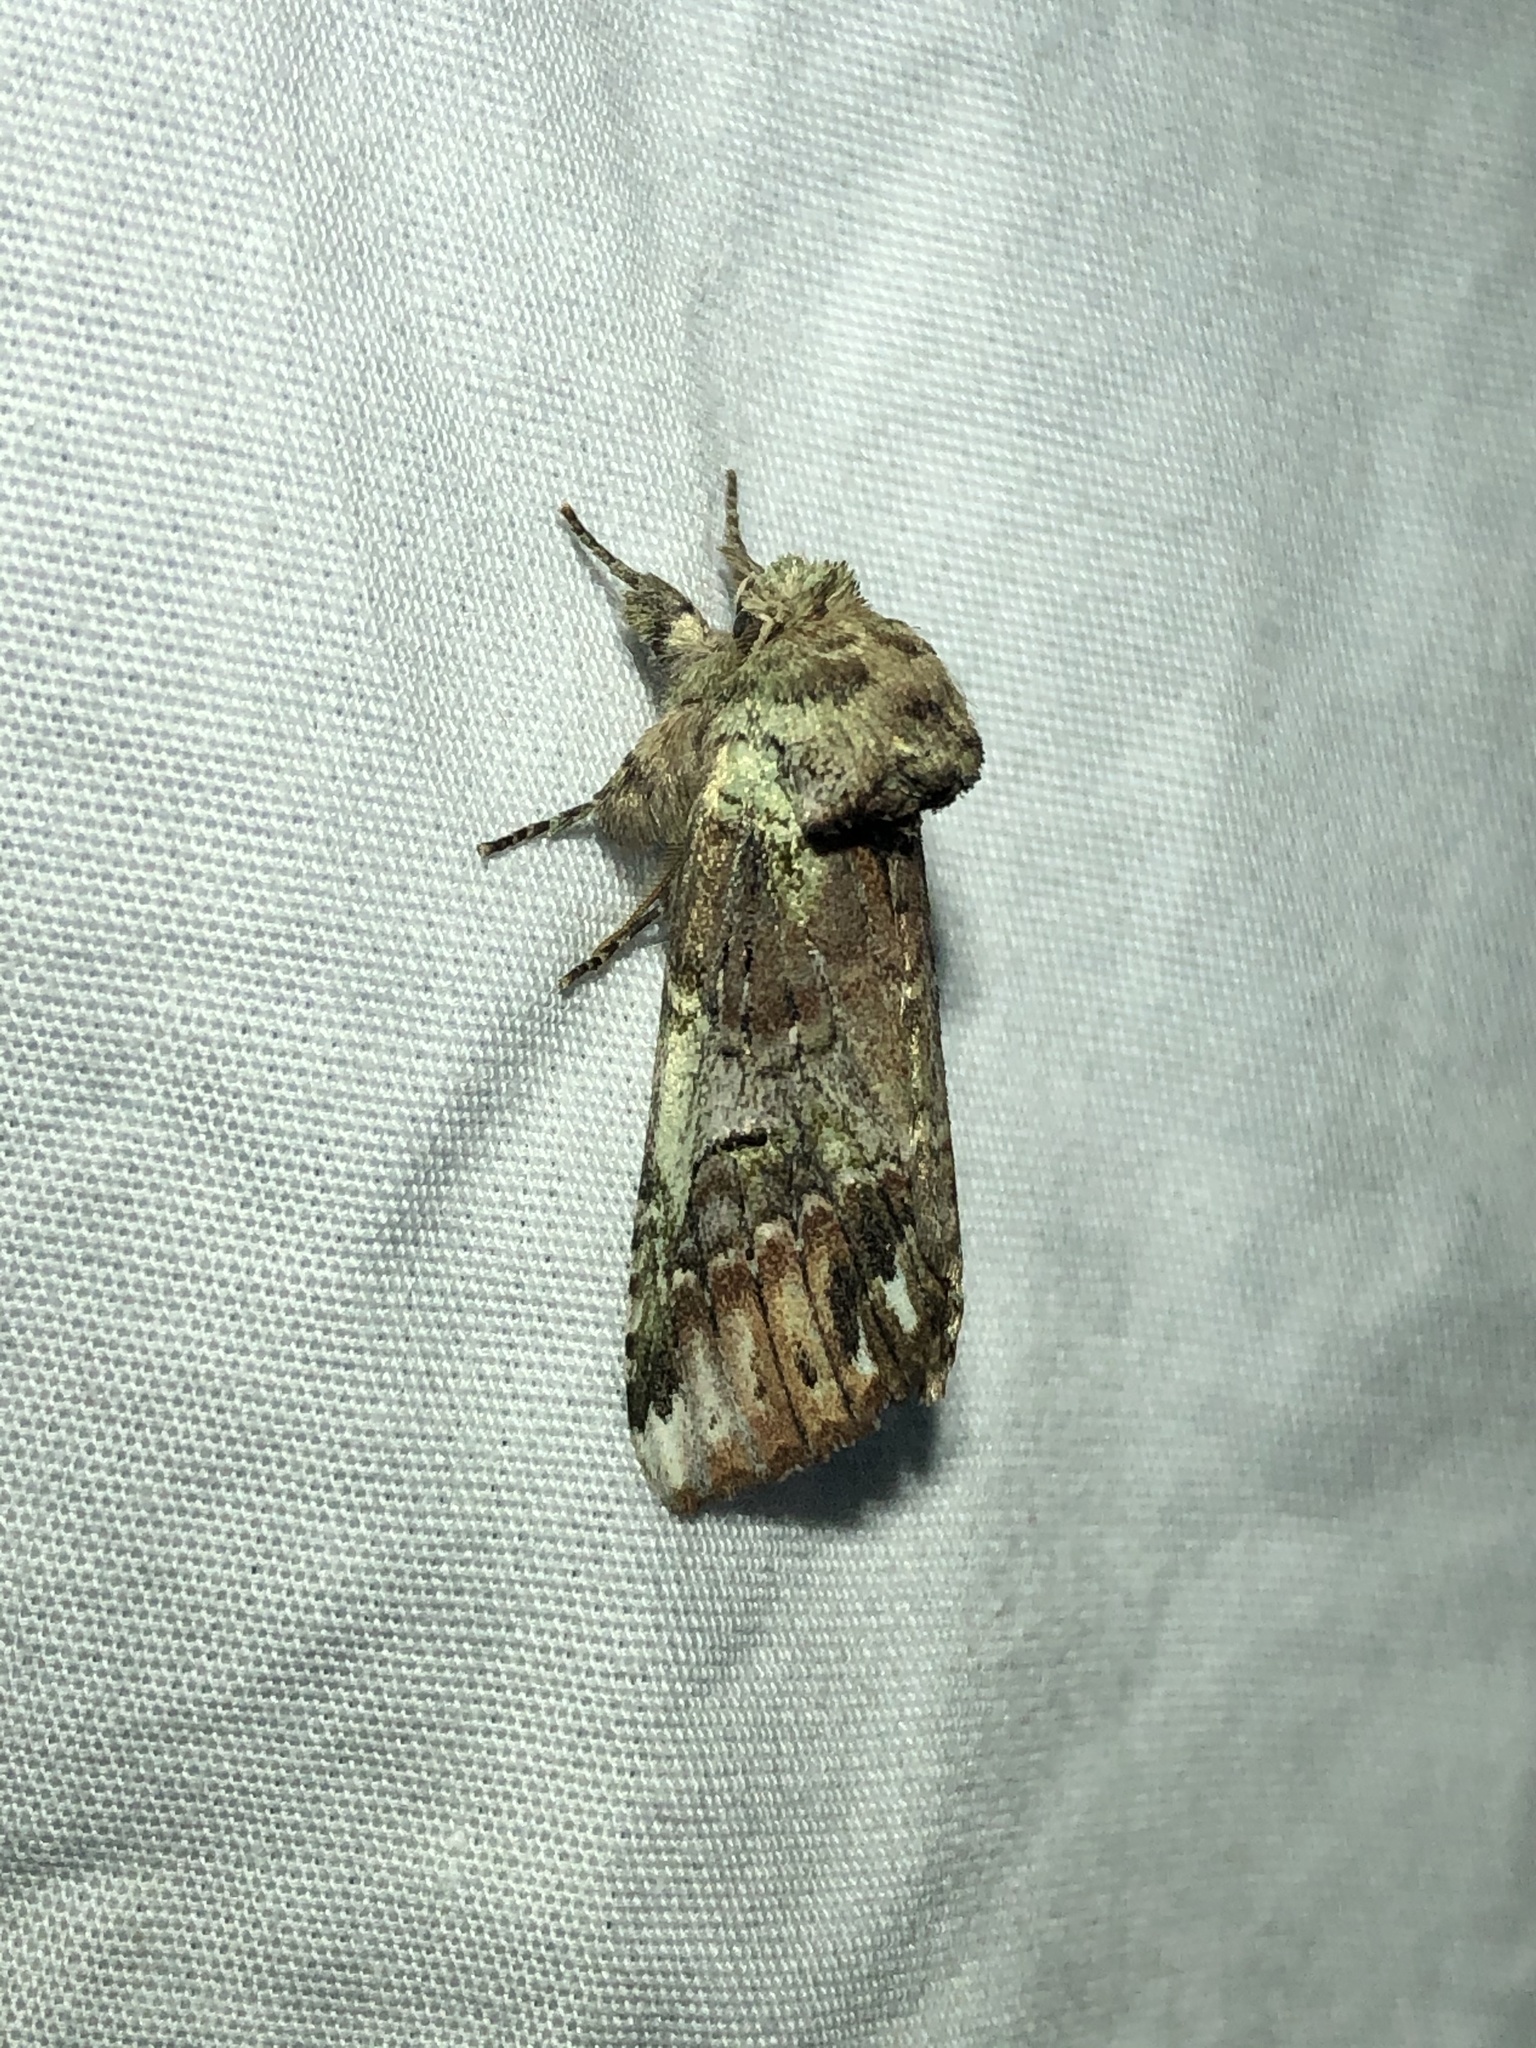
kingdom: Animalia
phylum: Arthropoda
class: Insecta
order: Lepidoptera
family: Notodontidae
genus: Schizura
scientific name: Schizura
